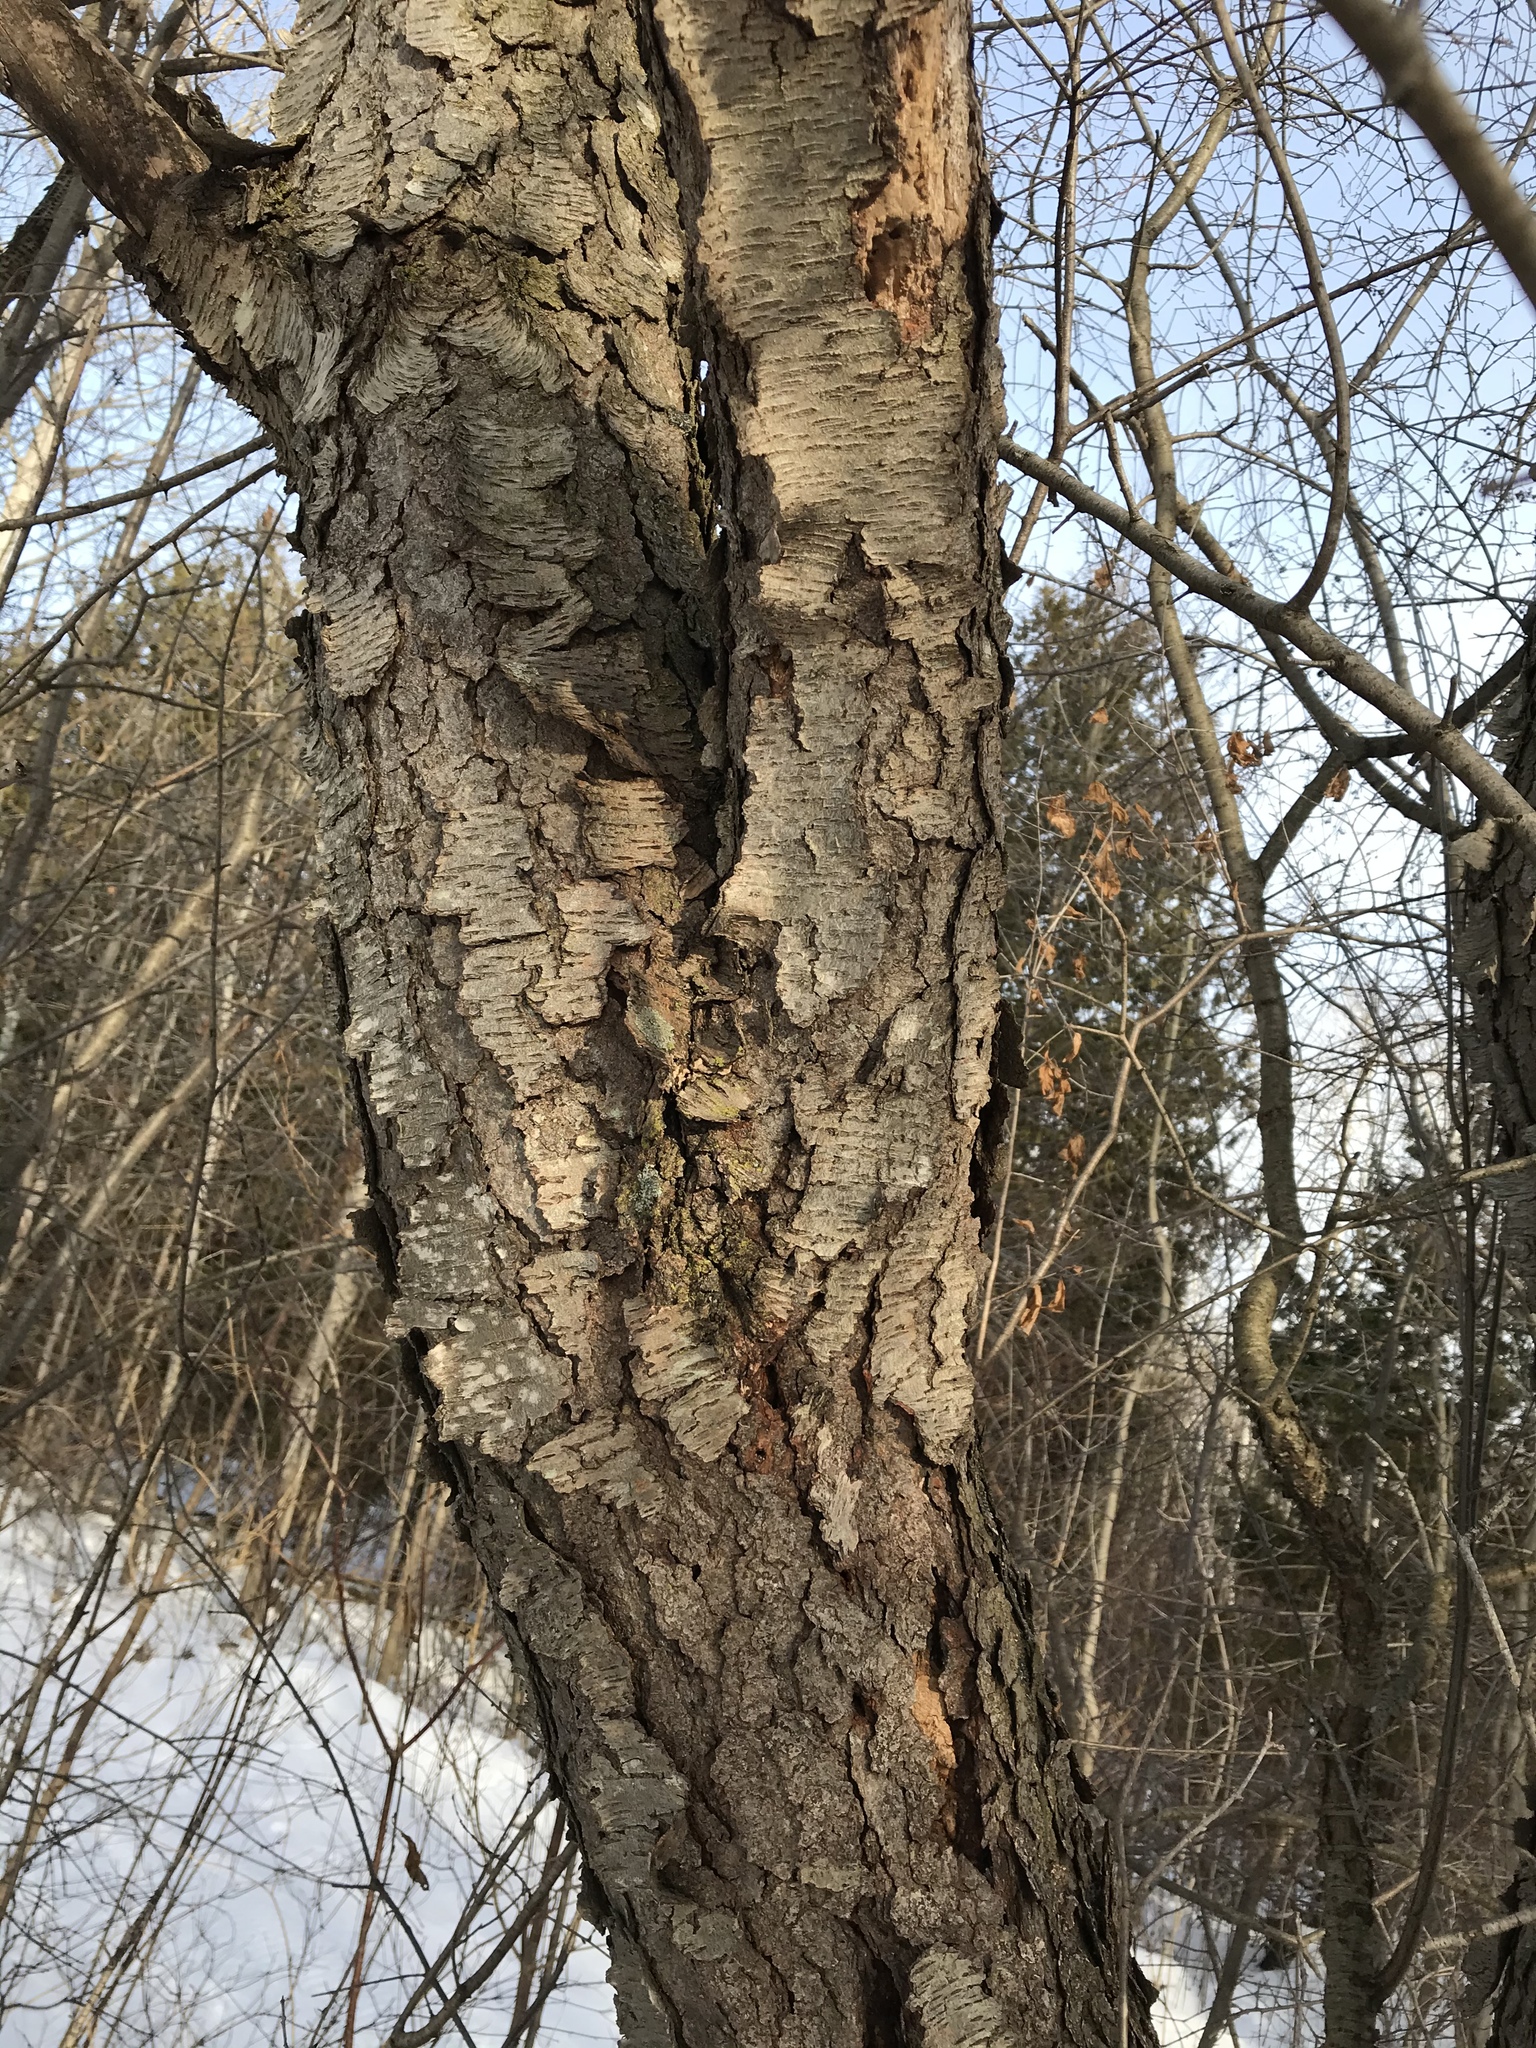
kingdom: Plantae
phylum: Tracheophyta
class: Magnoliopsida
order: Rosales
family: Rosaceae
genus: Prunus
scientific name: Prunus serotina
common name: Black cherry
